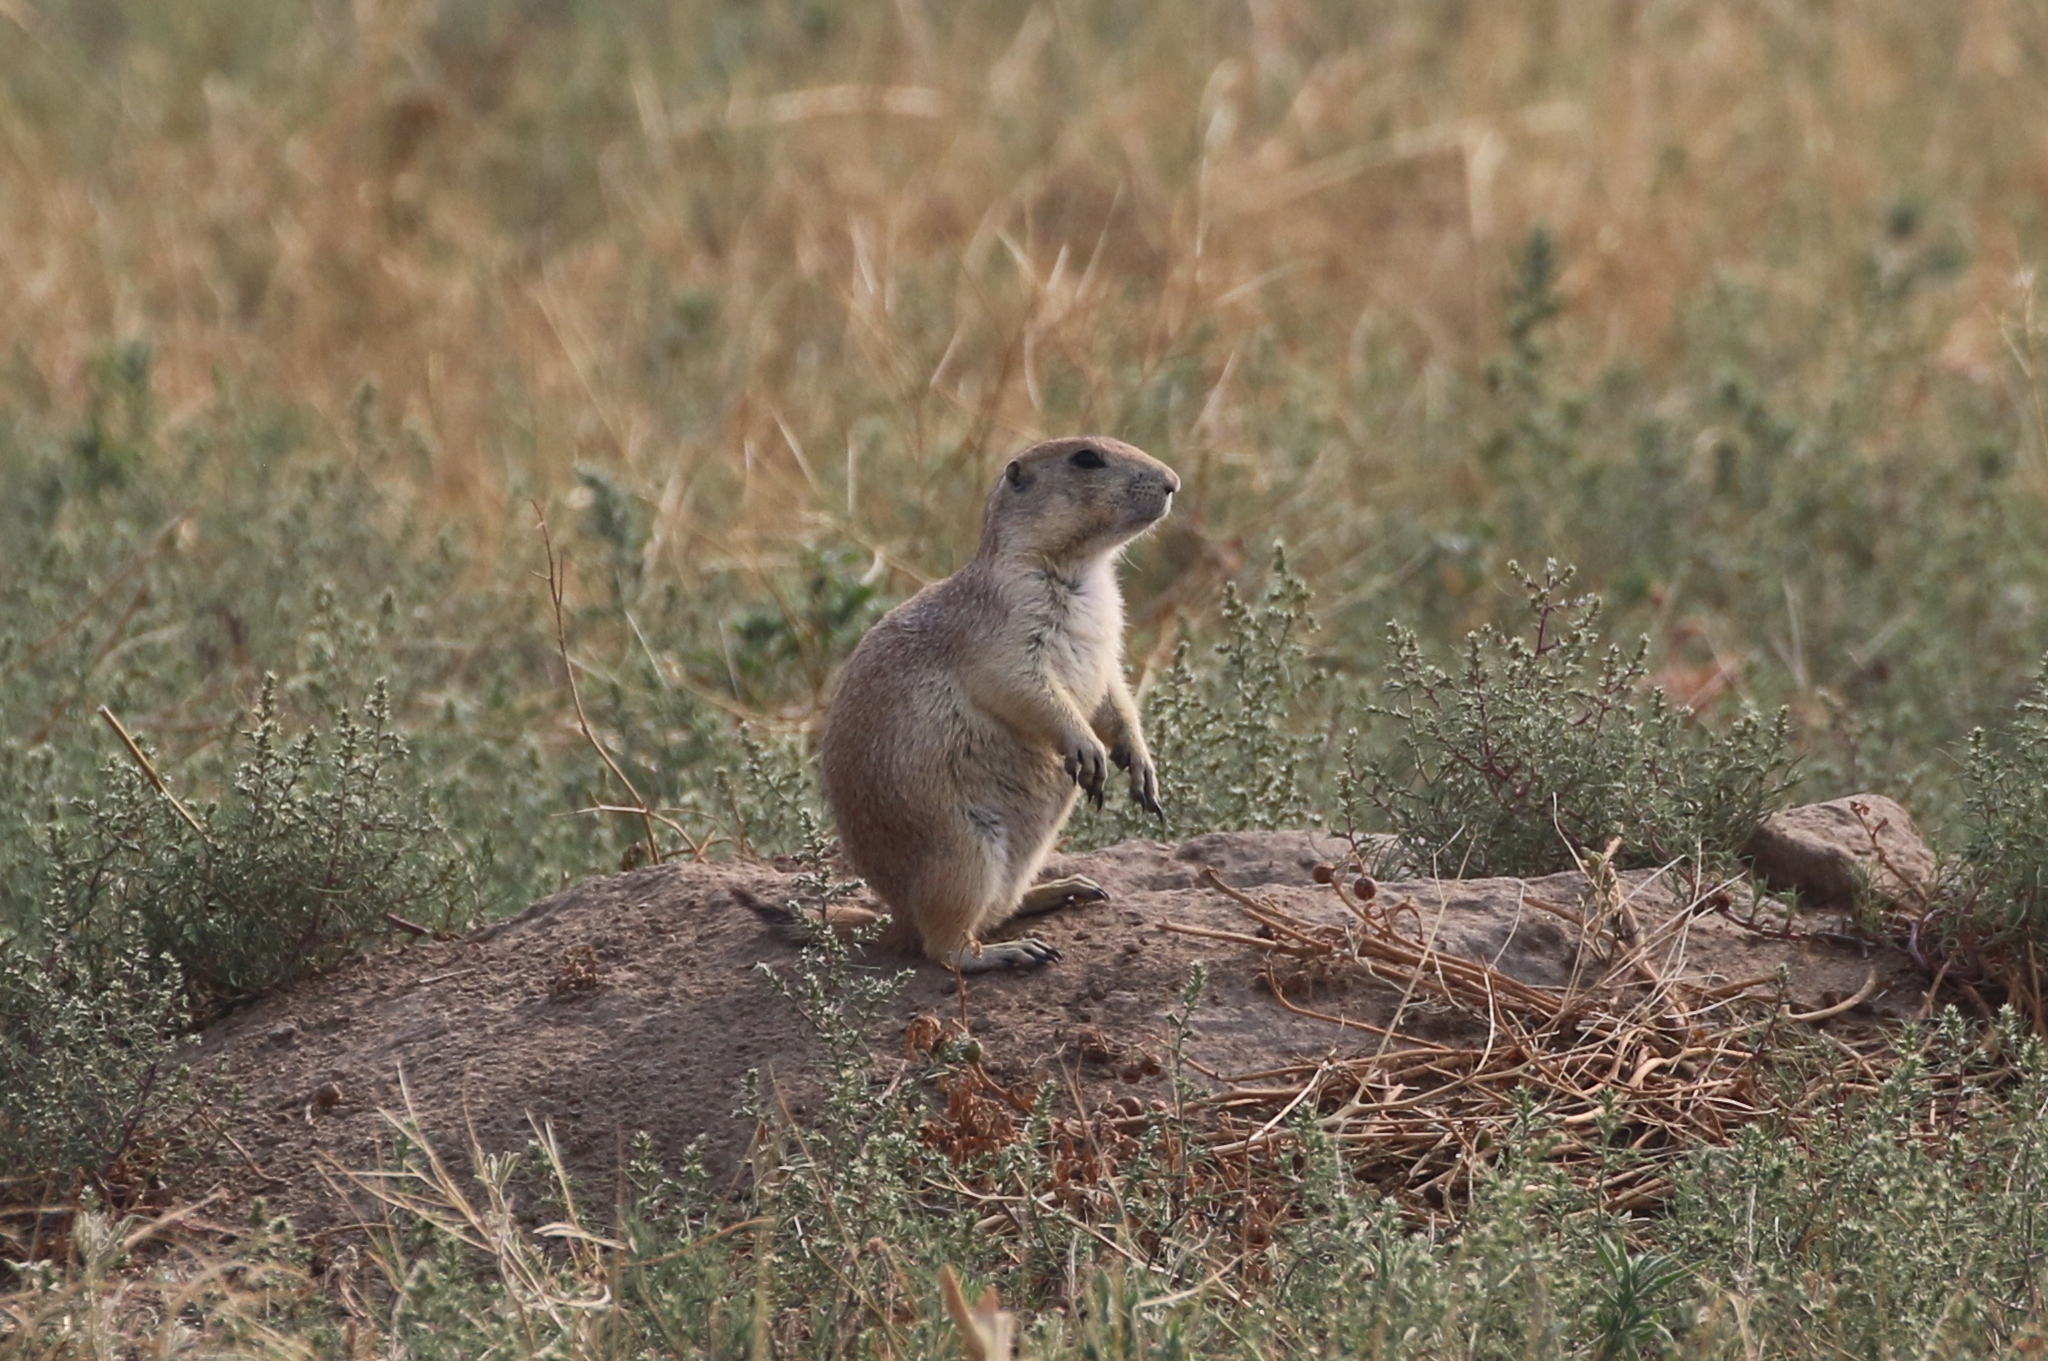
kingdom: Animalia
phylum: Chordata
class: Mammalia
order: Rodentia
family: Sciuridae
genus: Cynomys
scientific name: Cynomys ludovicianus
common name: Black-tailed prairie dog
